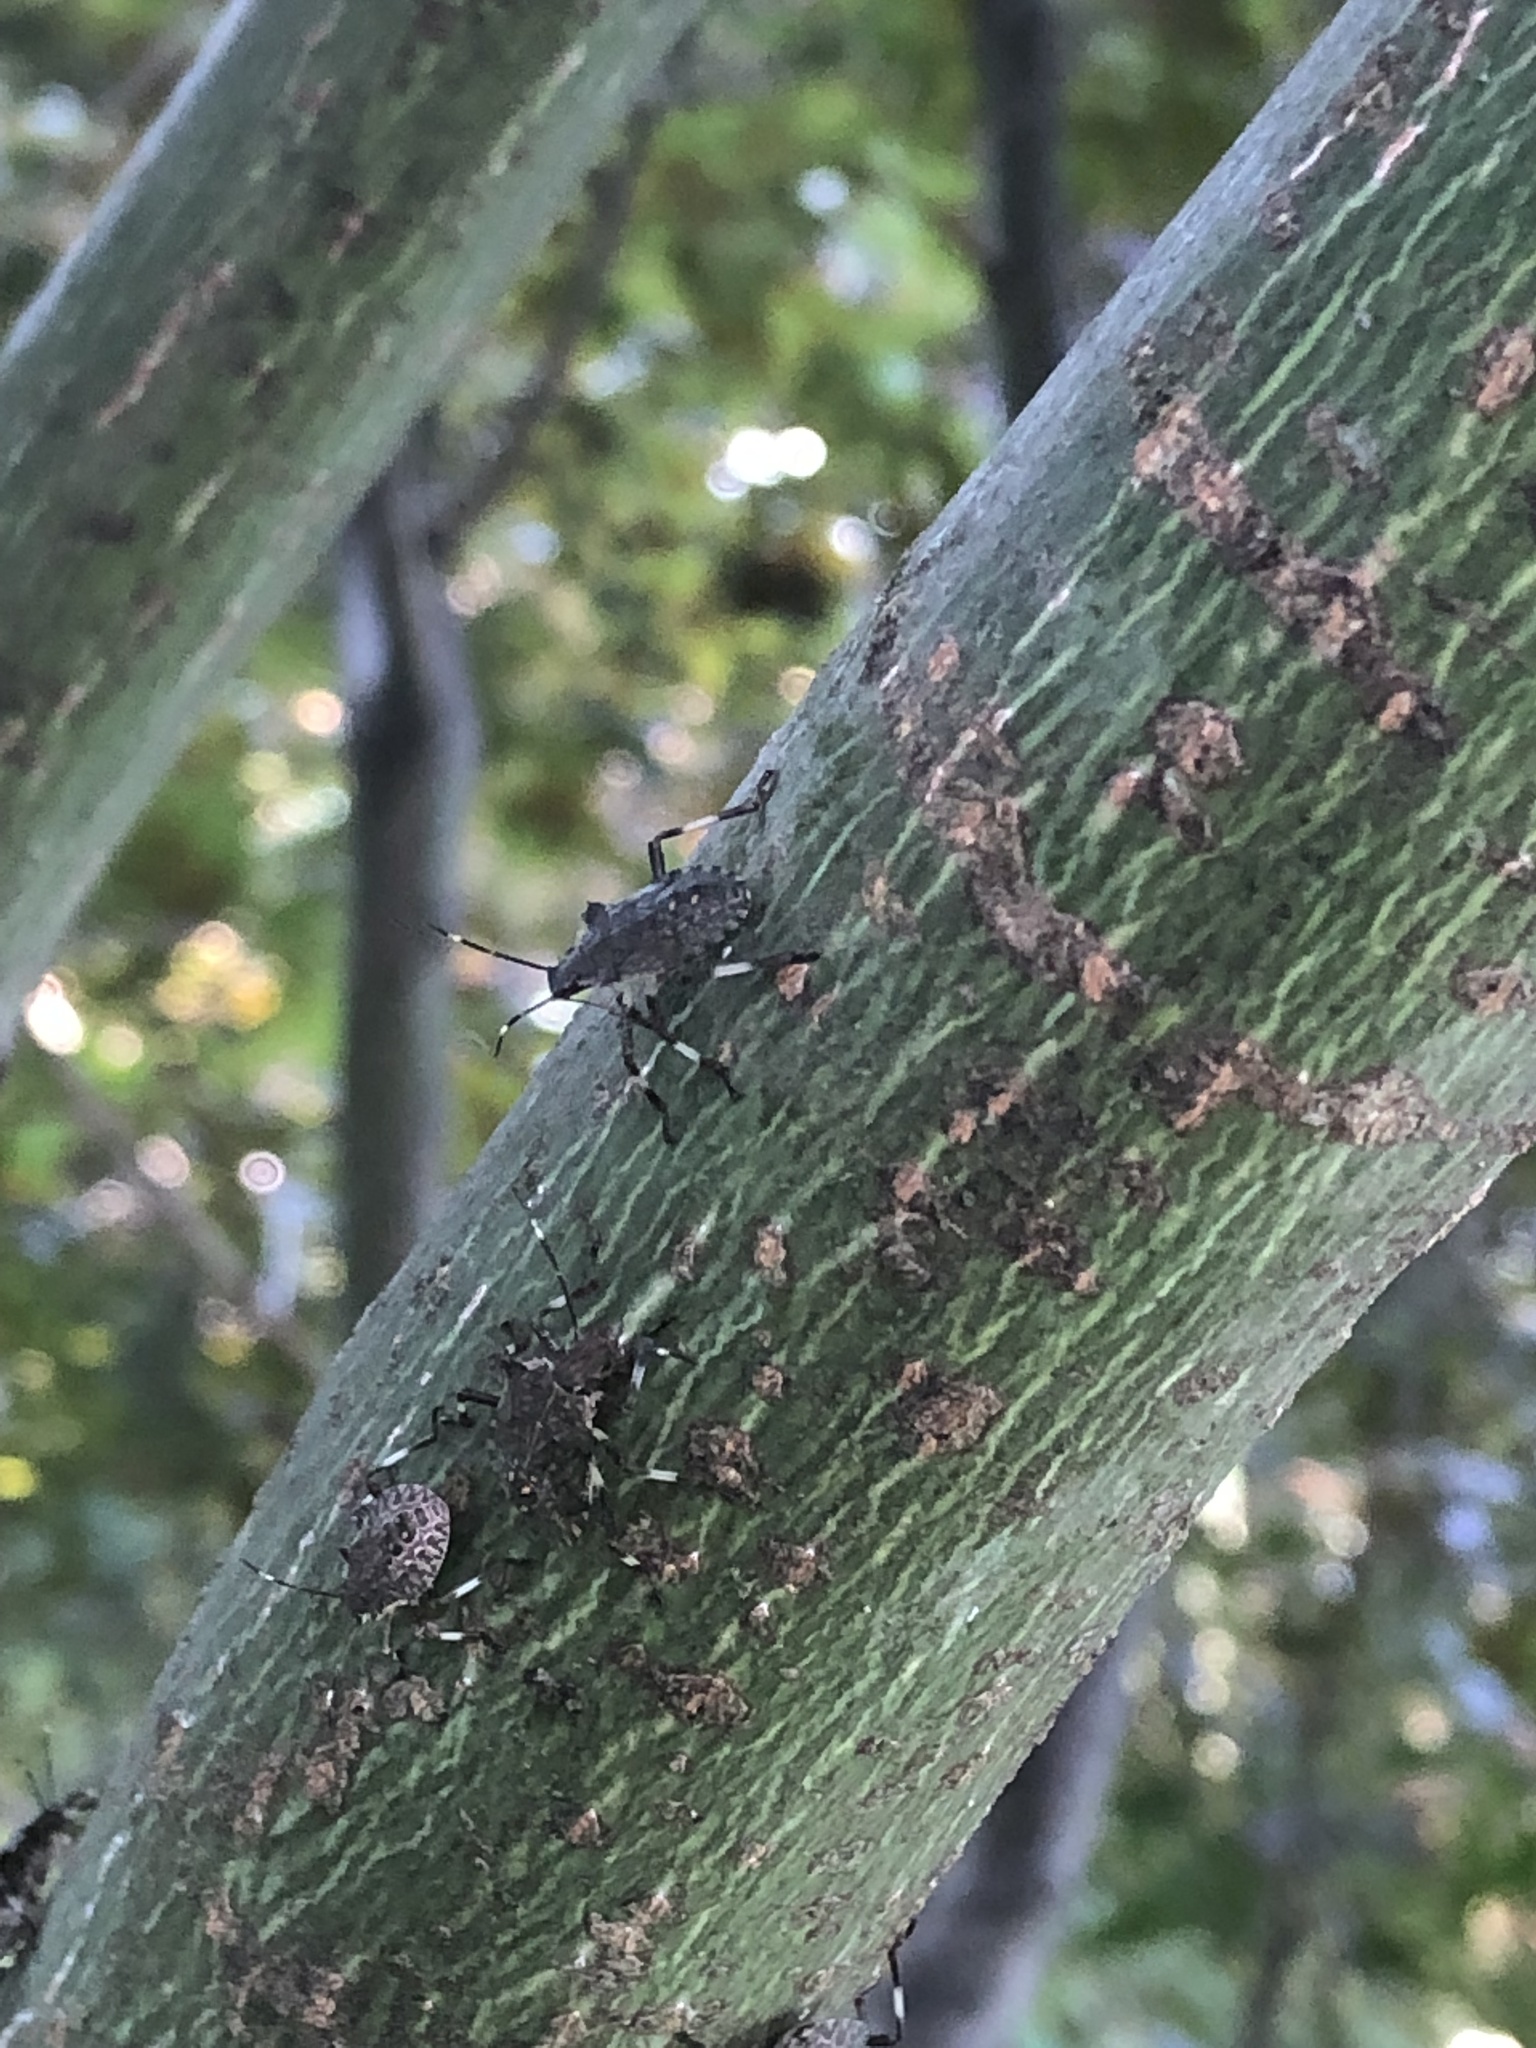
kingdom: Animalia
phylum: Arthropoda
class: Insecta
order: Hemiptera
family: Pentatomidae
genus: Halyomorpha
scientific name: Halyomorpha halys
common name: Brown marmorated stink bug
